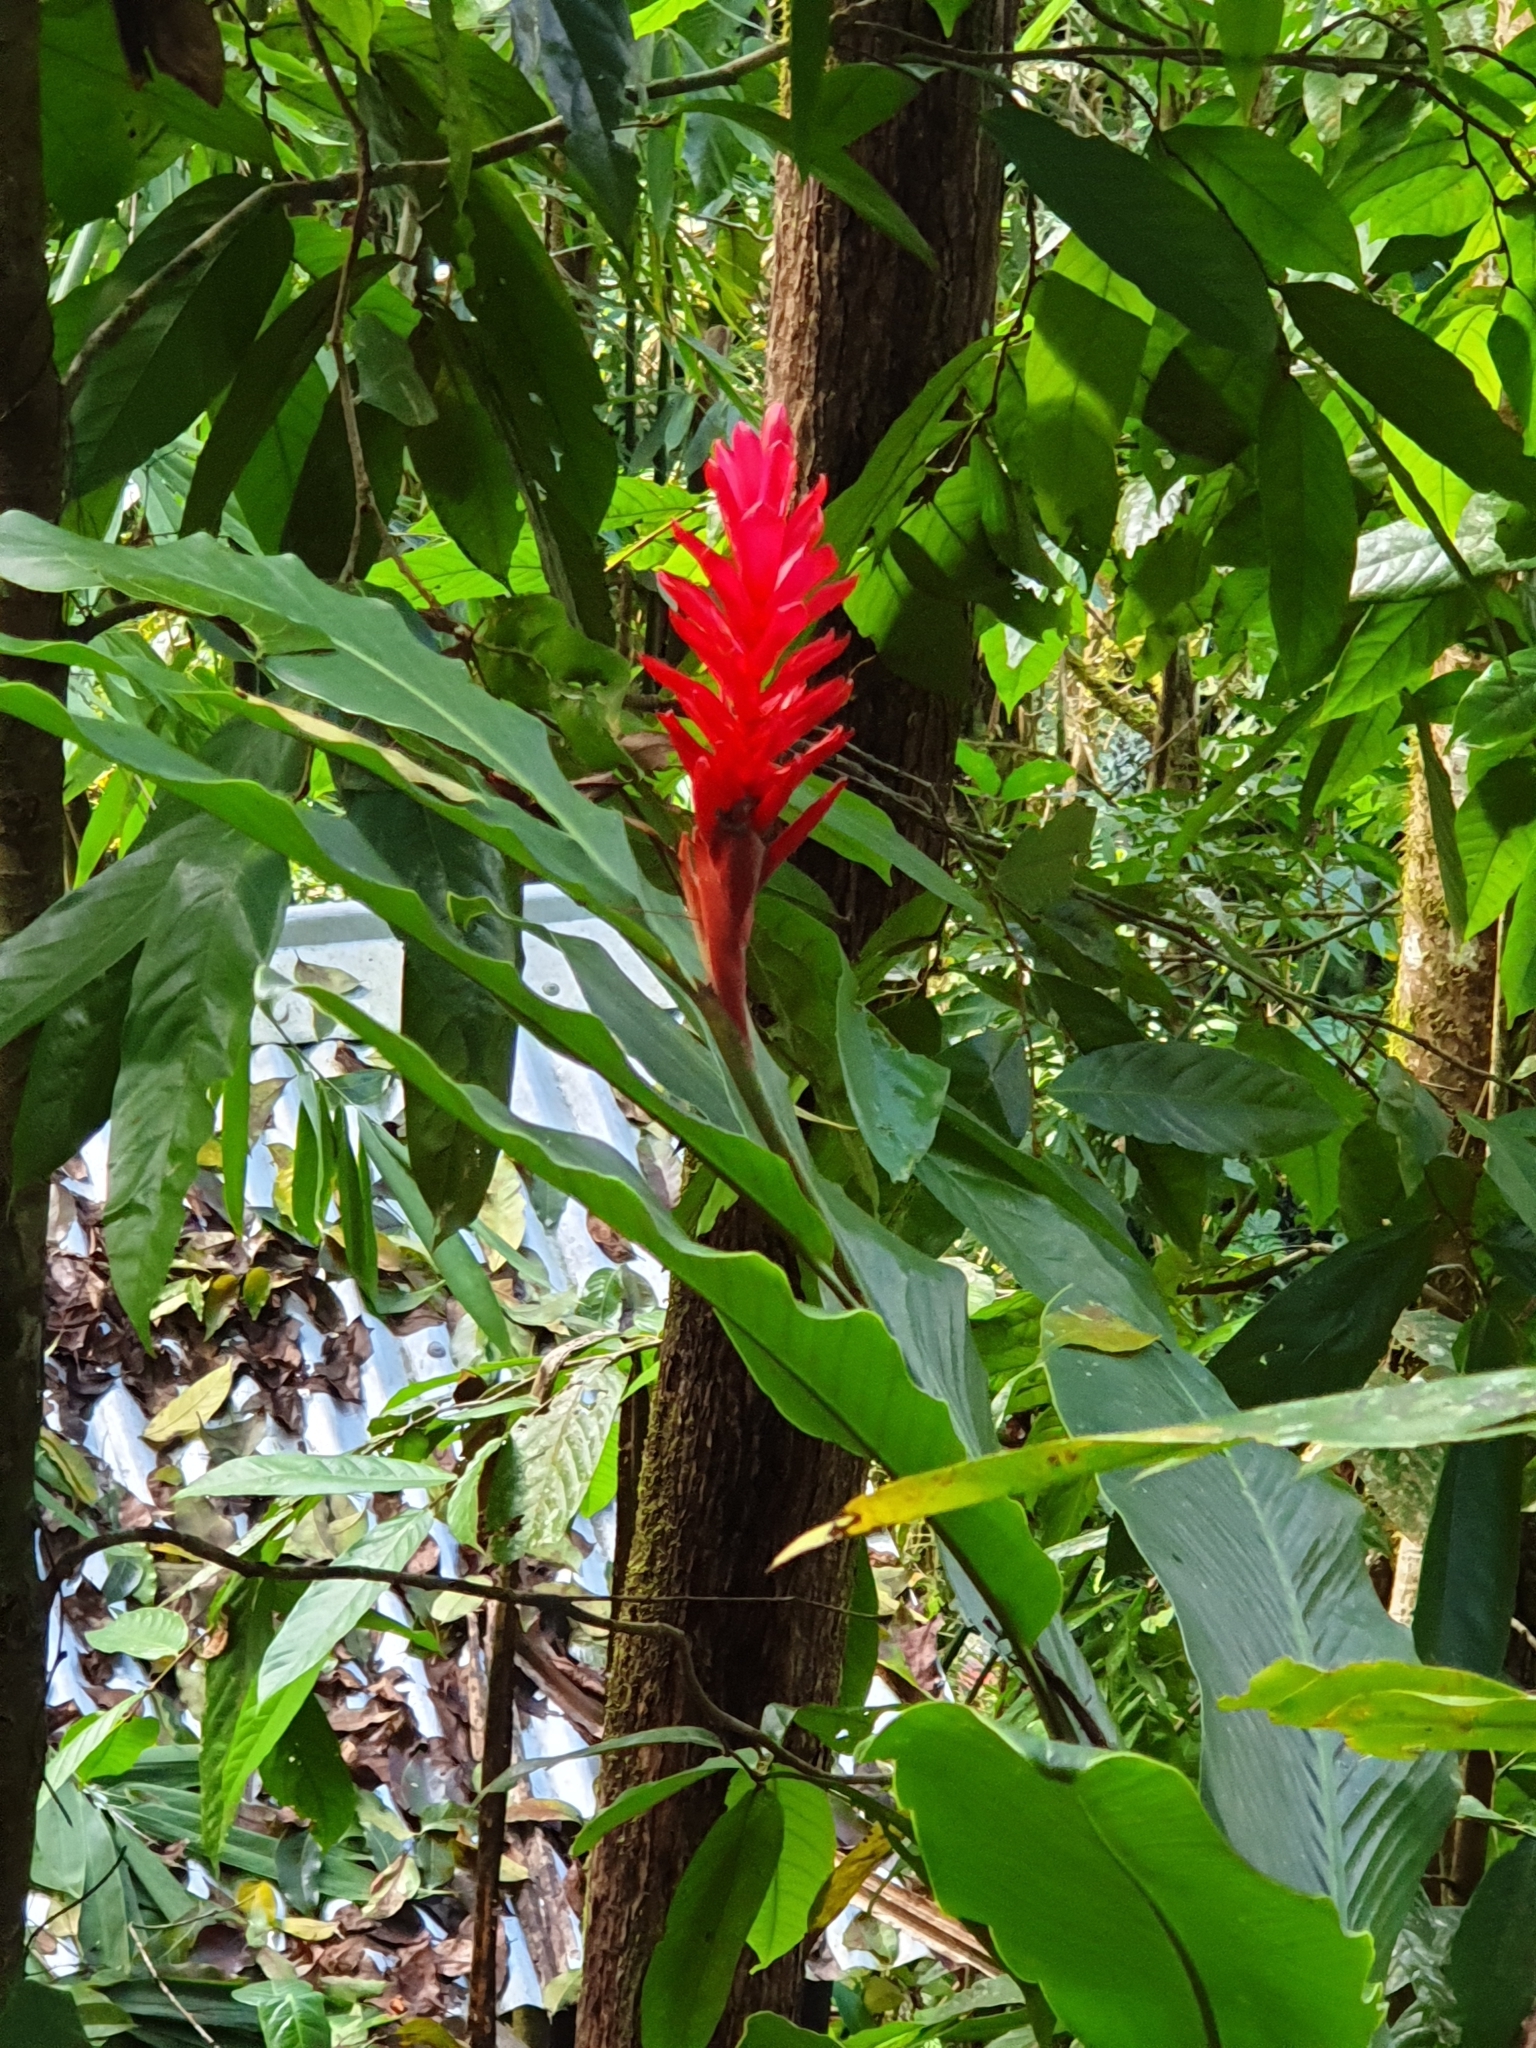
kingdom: Plantae
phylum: Tracheophyta
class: Liliopsida
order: Zingiberales
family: Zingiberaceae
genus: Alpinia
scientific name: Alpinia purpurata
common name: Red ginger
